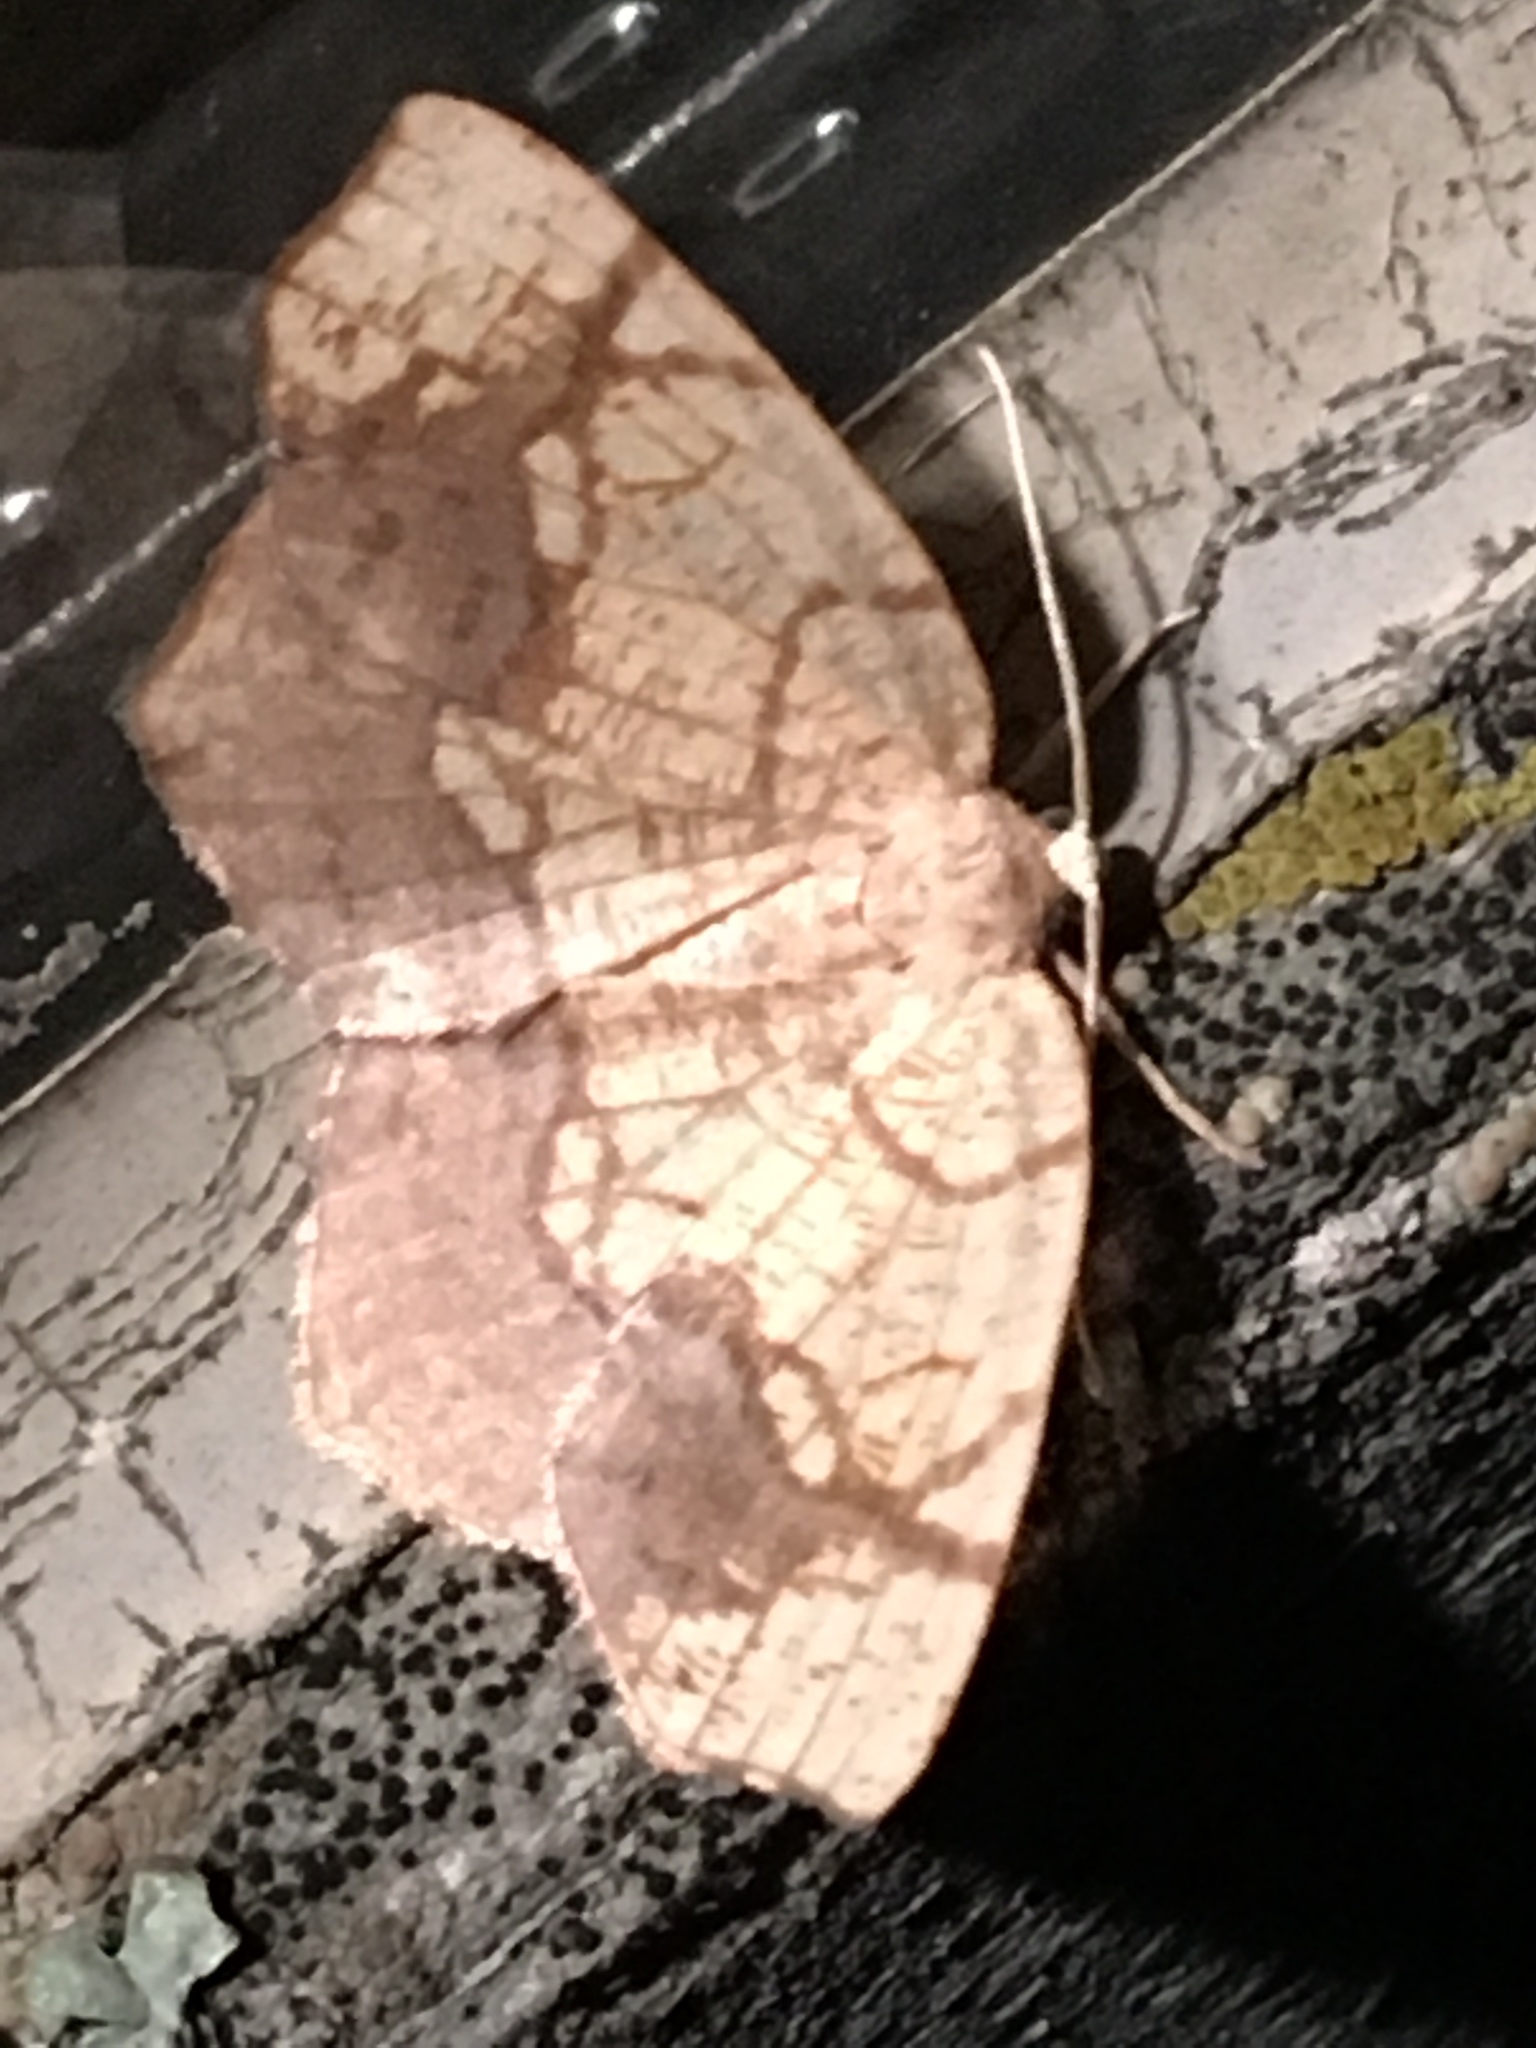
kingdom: Animalia
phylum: Arthropoda
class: Insecta
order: Lepidoptera
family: Geometridae
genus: Nematocampa
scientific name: Nematocampa resistaria
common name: Horned spanworm moth
